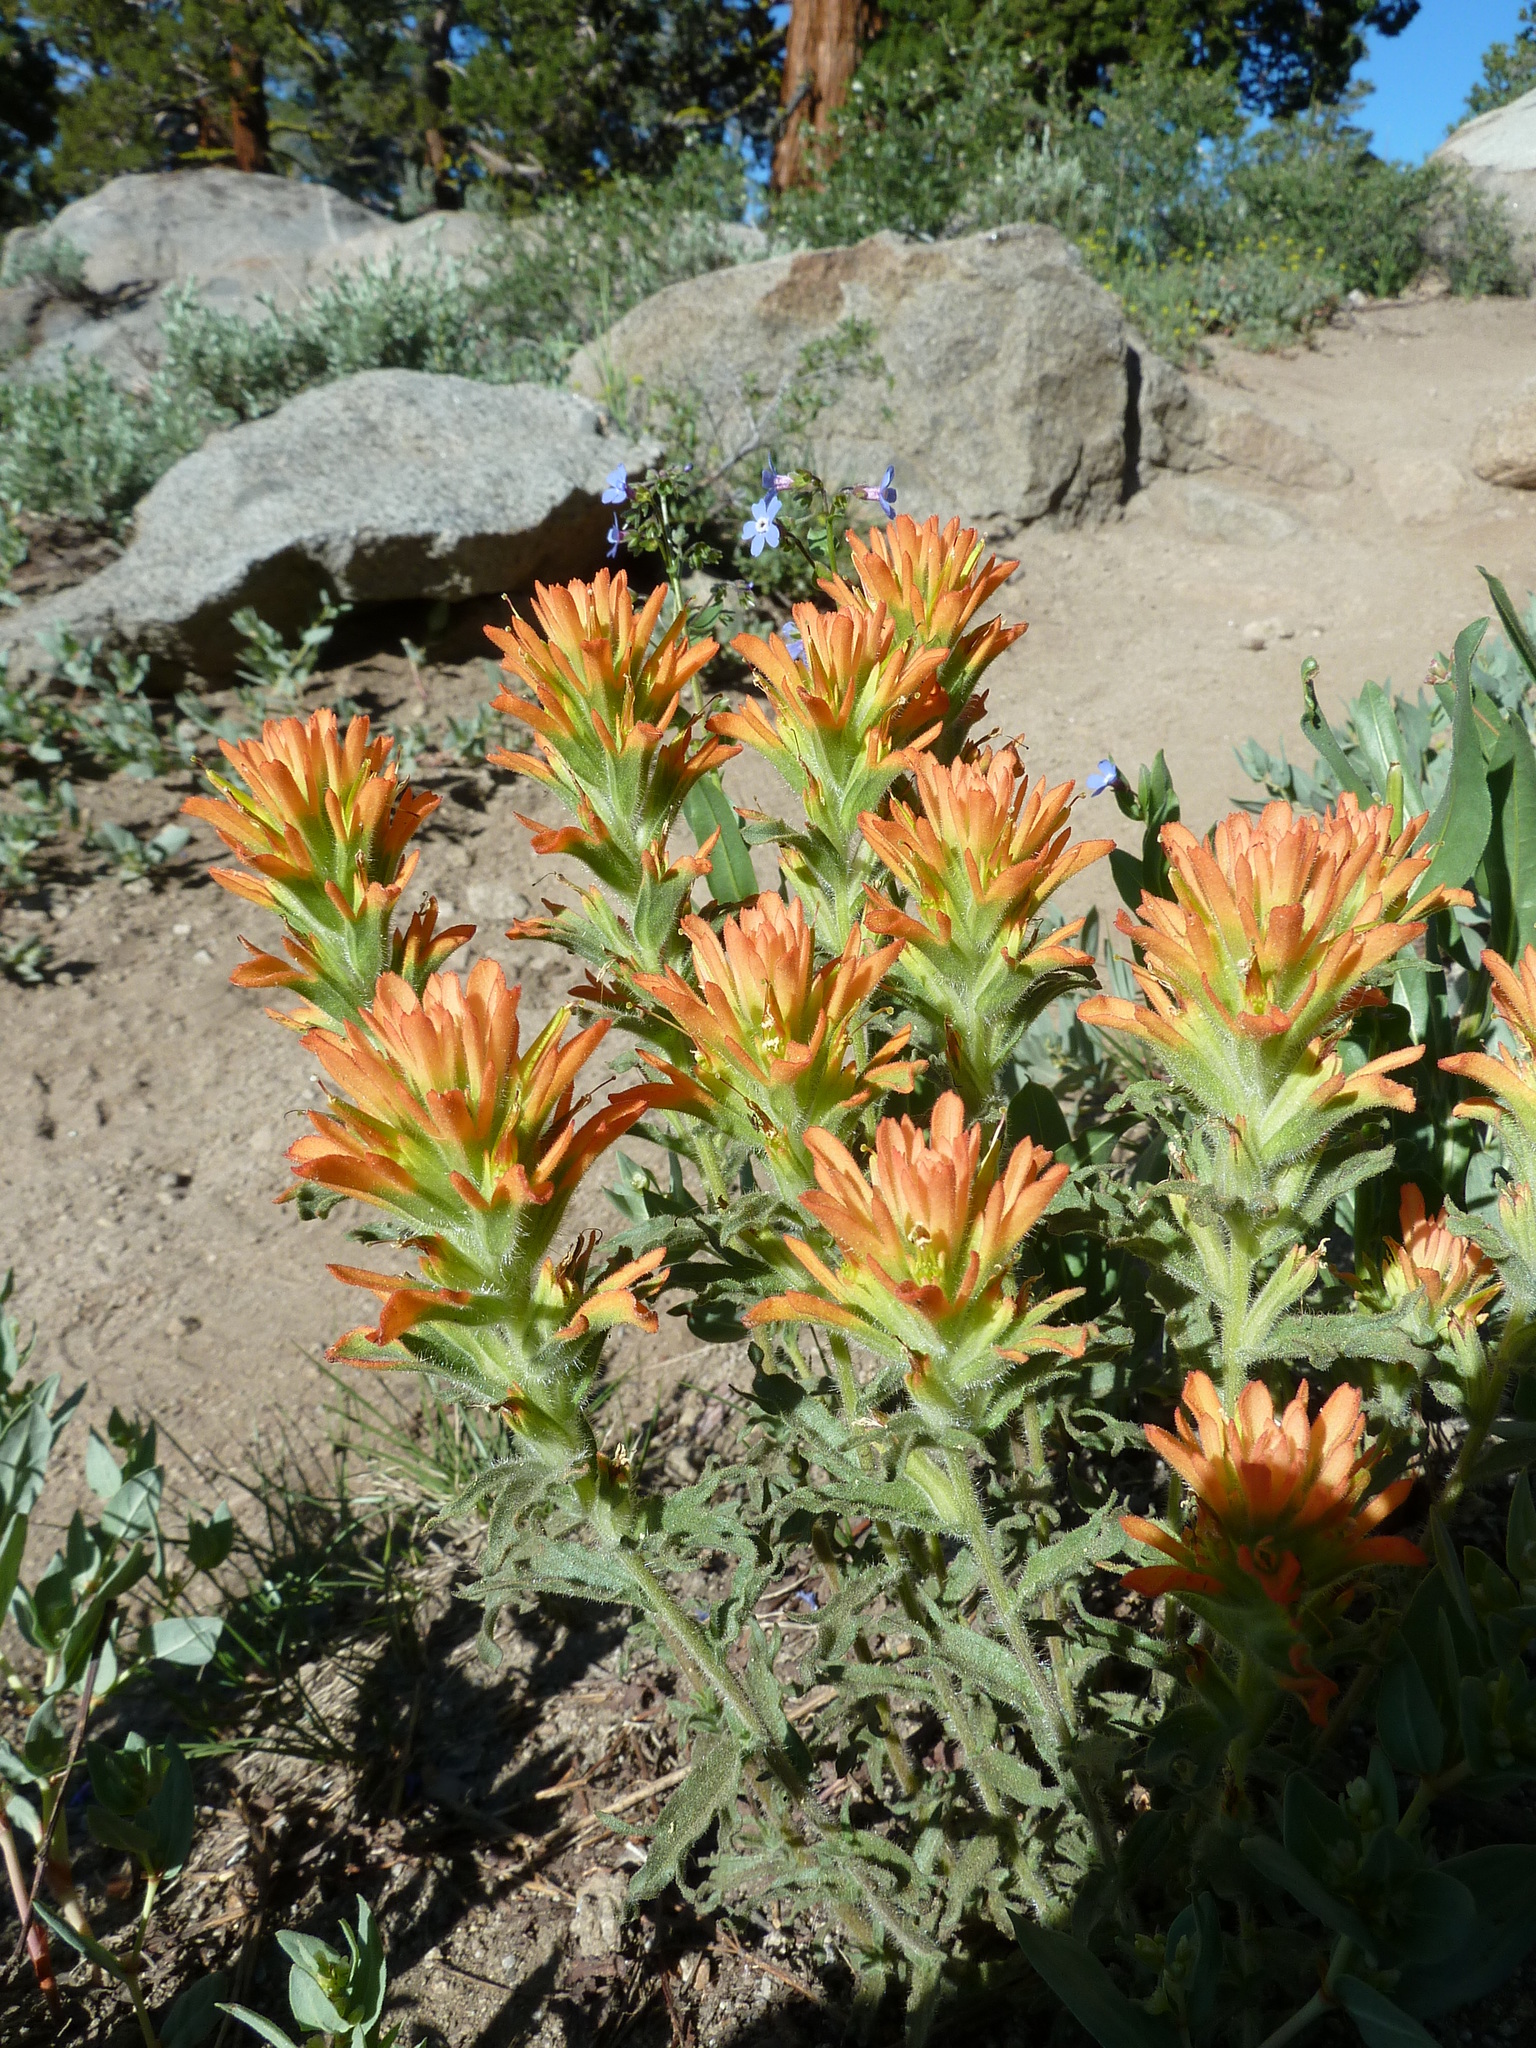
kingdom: Plantae
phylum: Tracheophyta
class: Magnoliopsida
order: Lamiales
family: Orobanchaceae
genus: Castilleja
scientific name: Castilleja applegatei
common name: Wavy-leaf paintbrush
